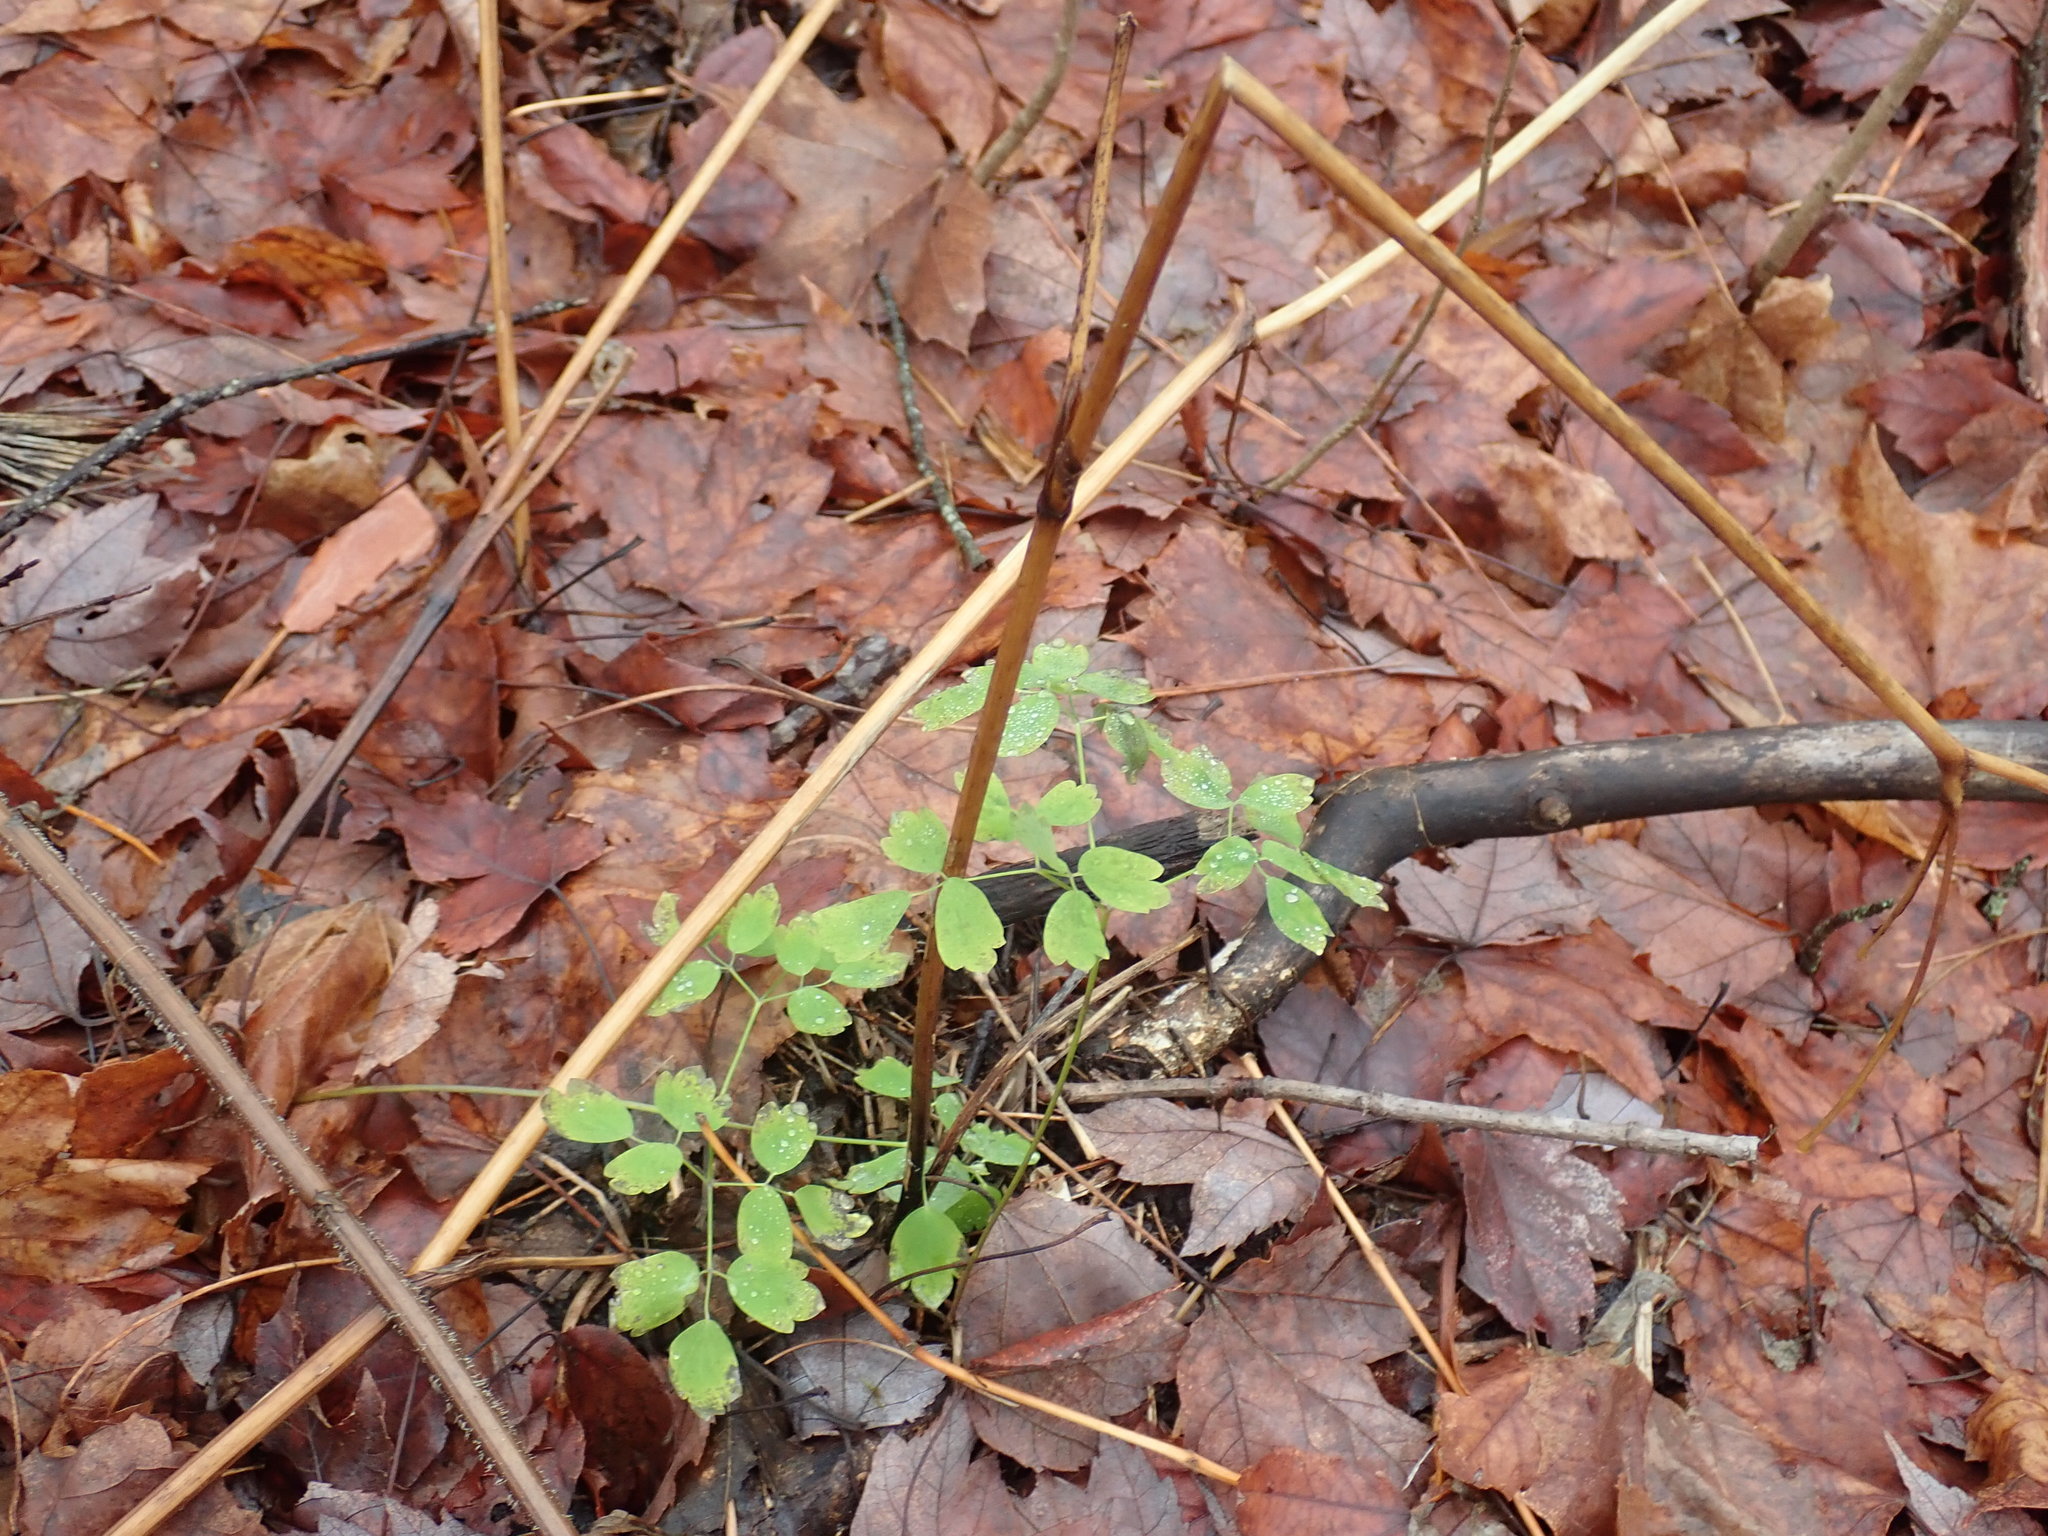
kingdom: Plantae
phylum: Tracheophyta
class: Magnoliopsida
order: Ranunculales
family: Ranunculaceae
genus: Thalictrum
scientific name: Thalictrum
